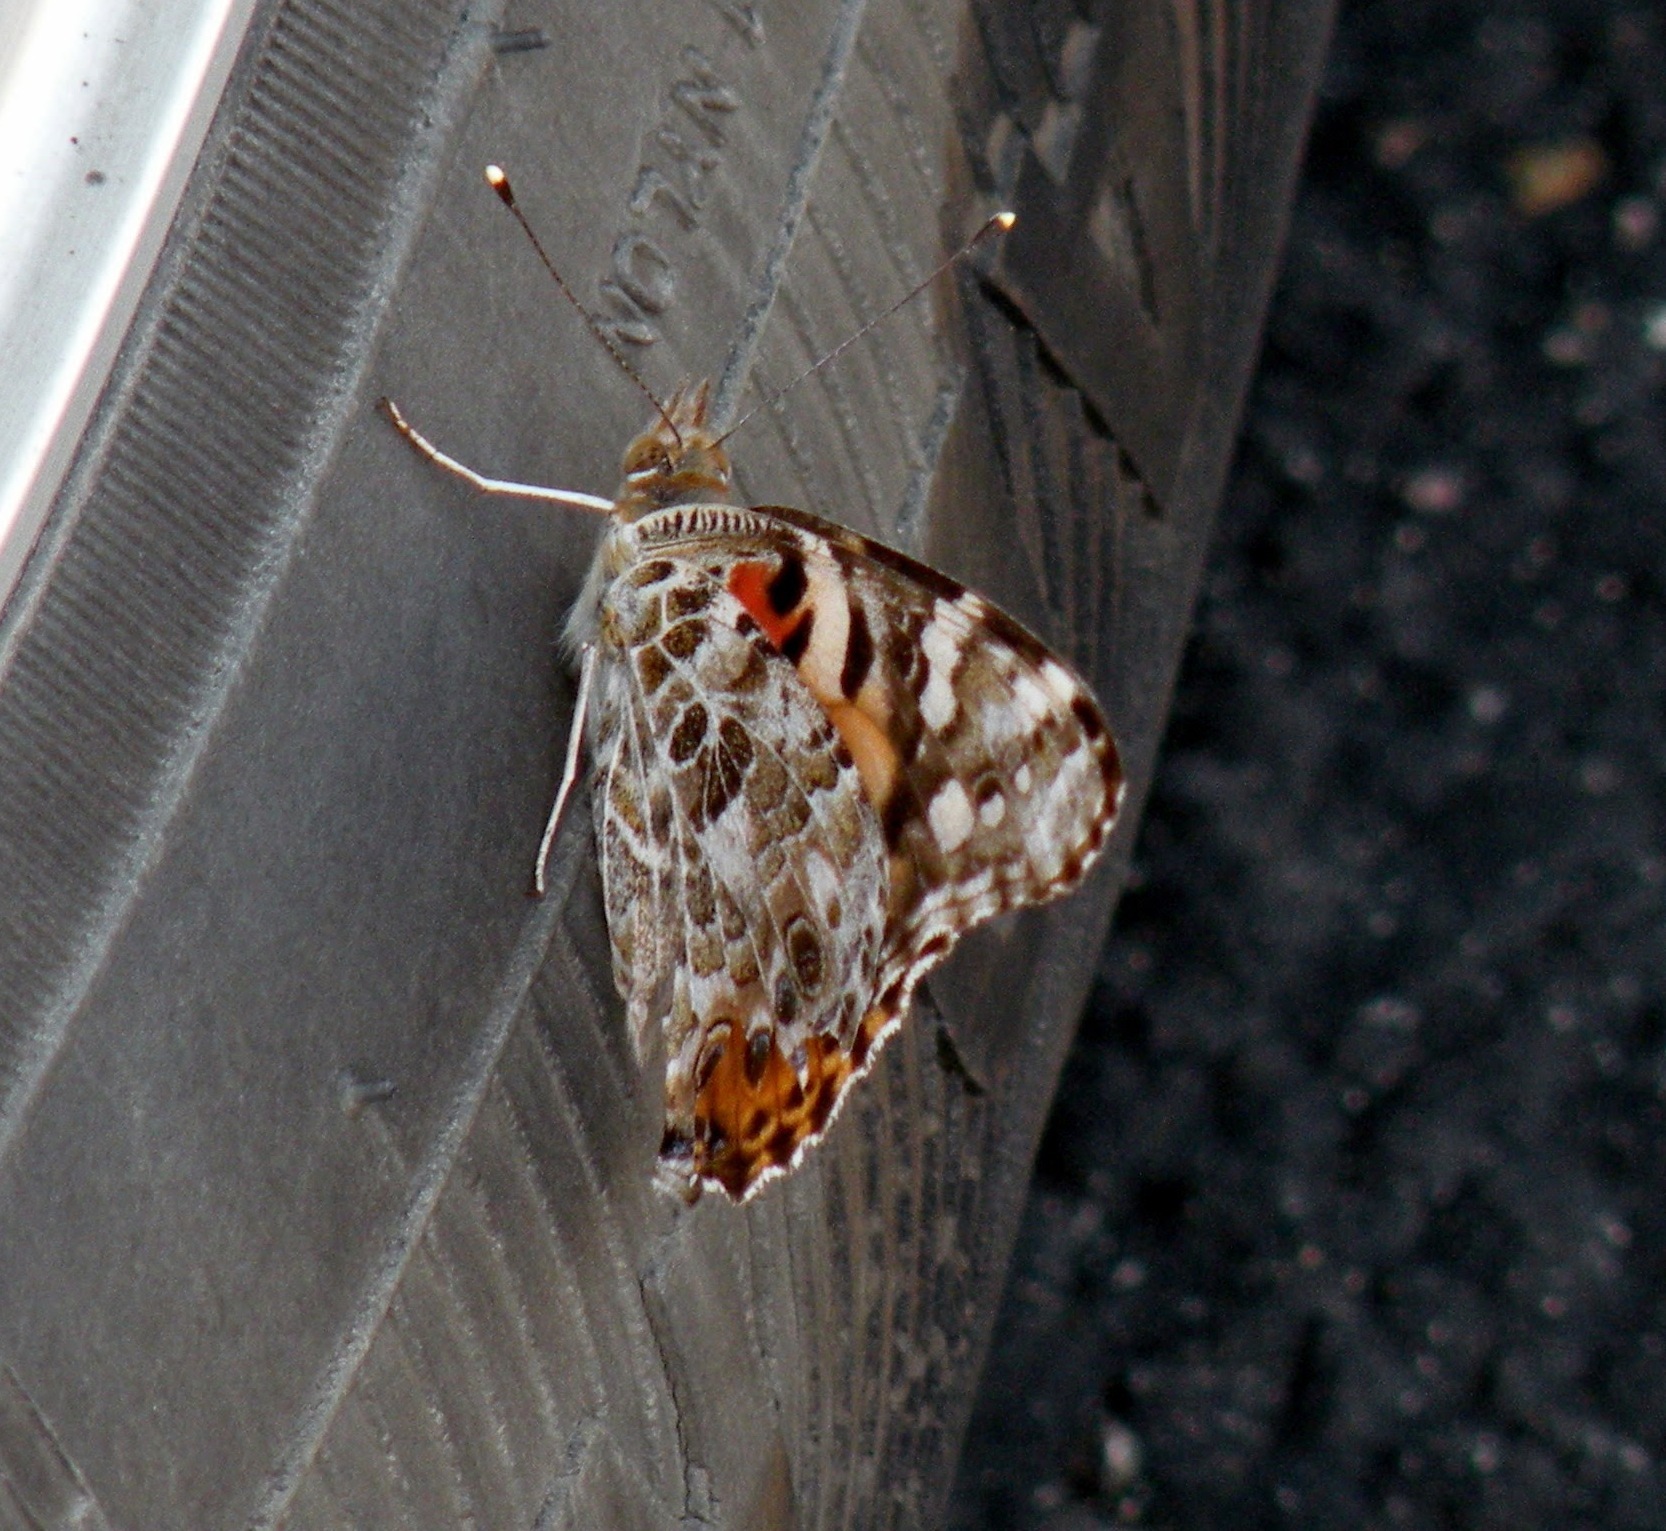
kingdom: Animalia
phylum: Arthropoda
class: Insecta
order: Lepidoptera
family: Nymphalidae
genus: Vanessa
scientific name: Vanessa cardui
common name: Painted lady
